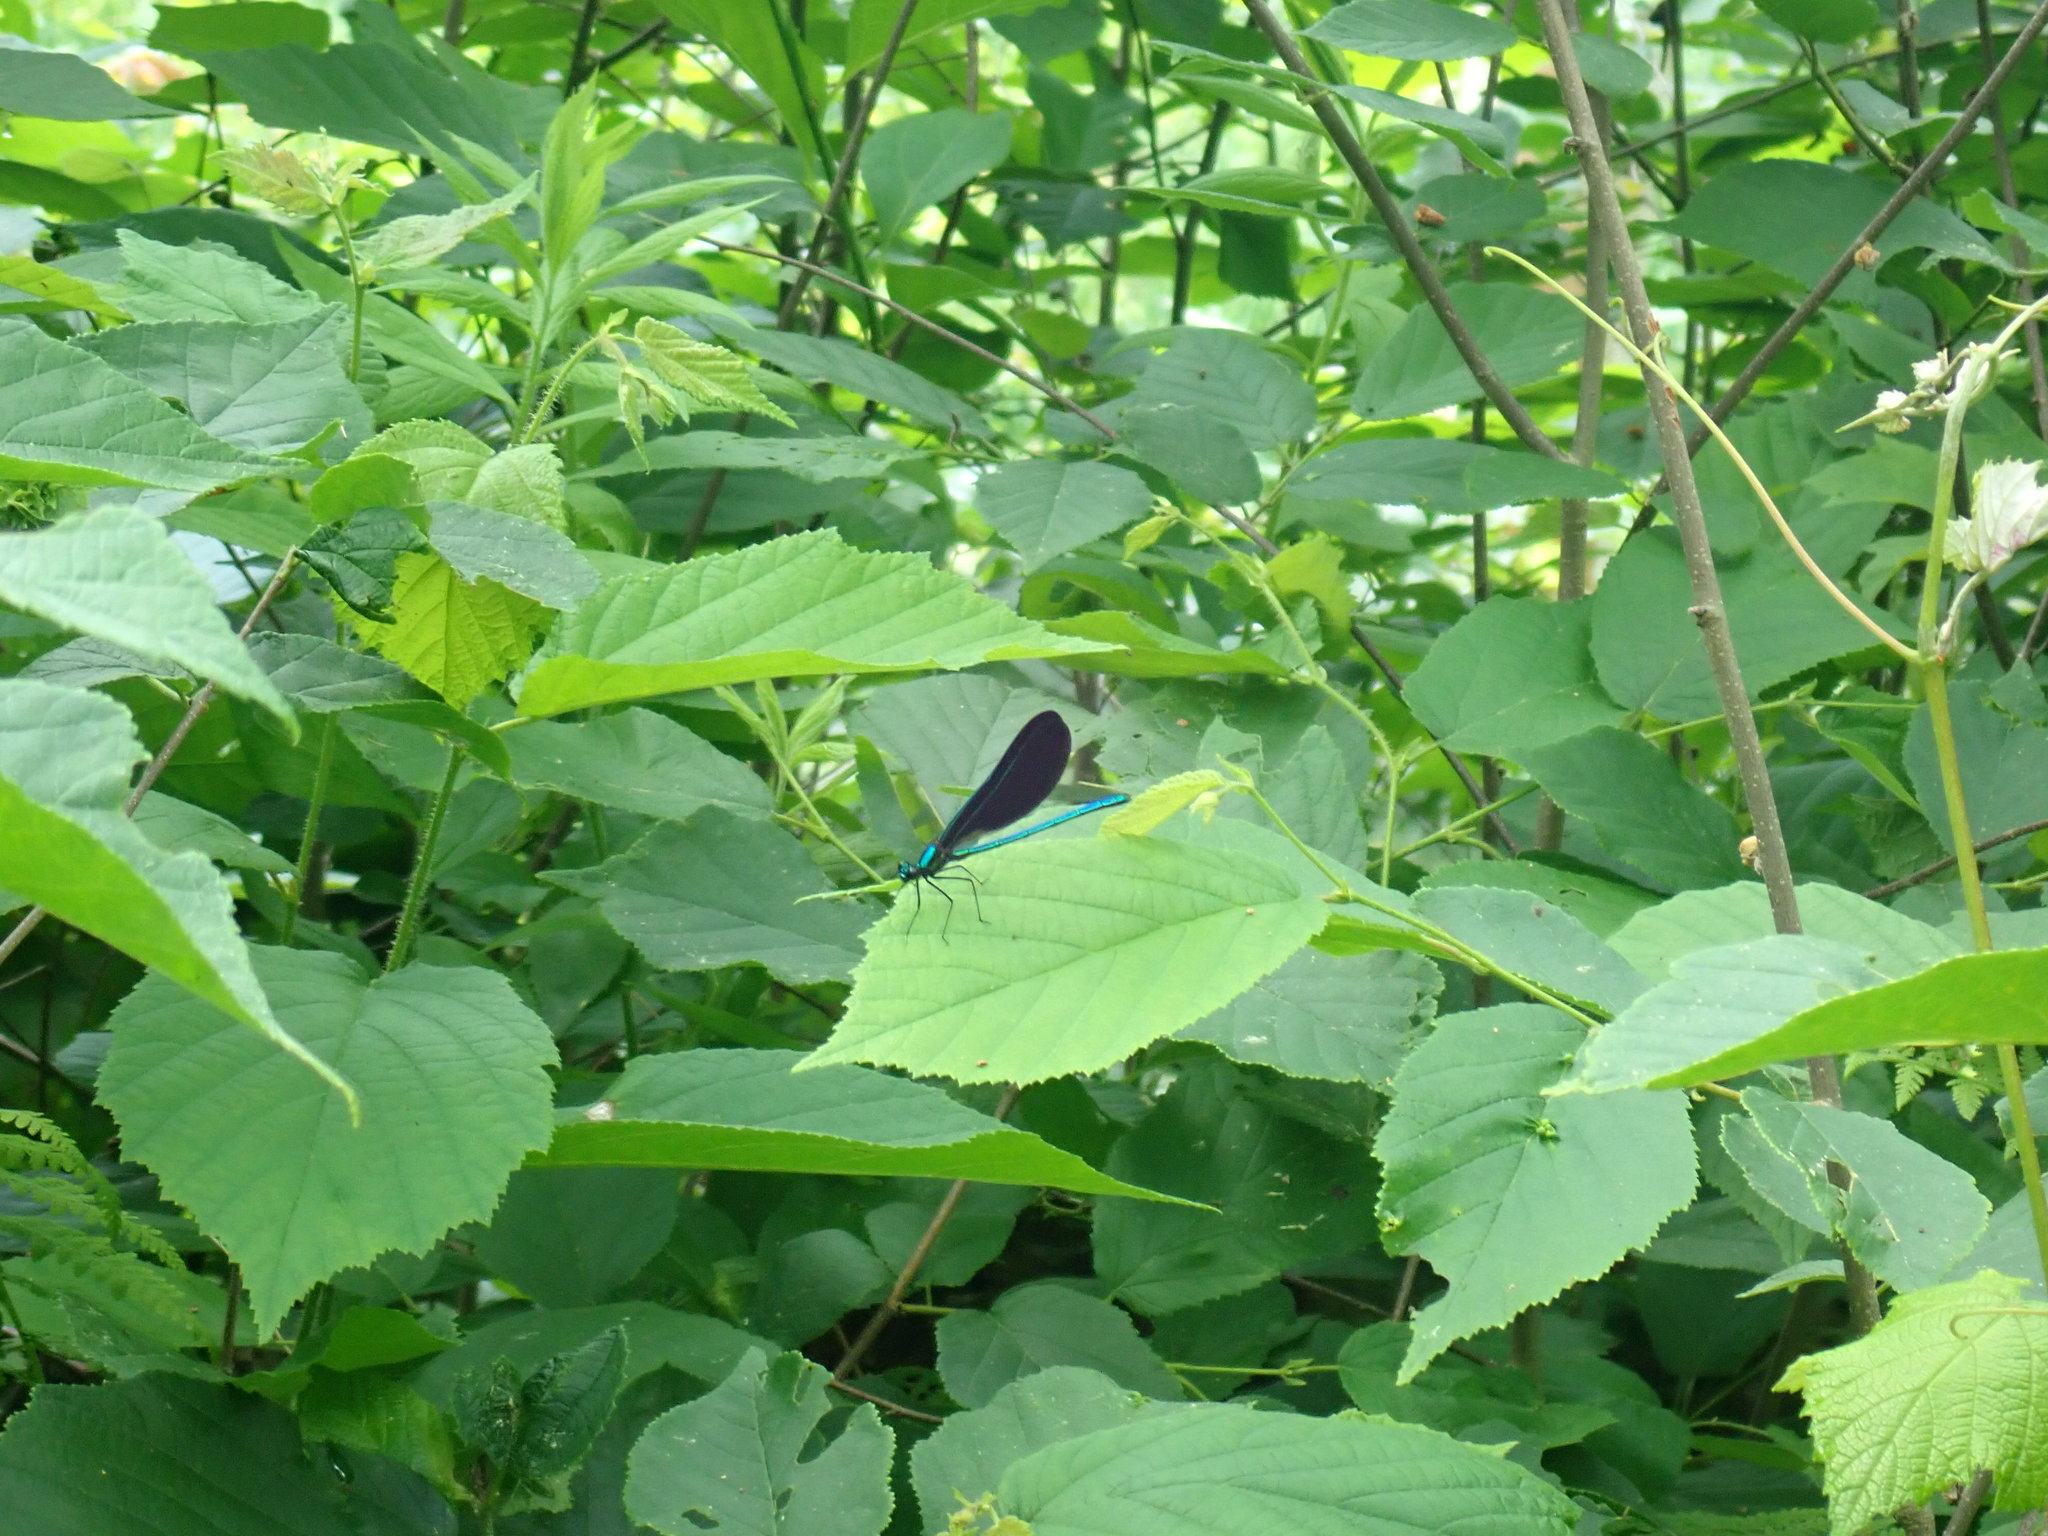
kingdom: Animalia
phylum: Arthropoda
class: Insecta
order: Odonata
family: Calopterygidae
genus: Calopteryx
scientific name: Calopteryx maculata
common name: Ebony jewelwing
